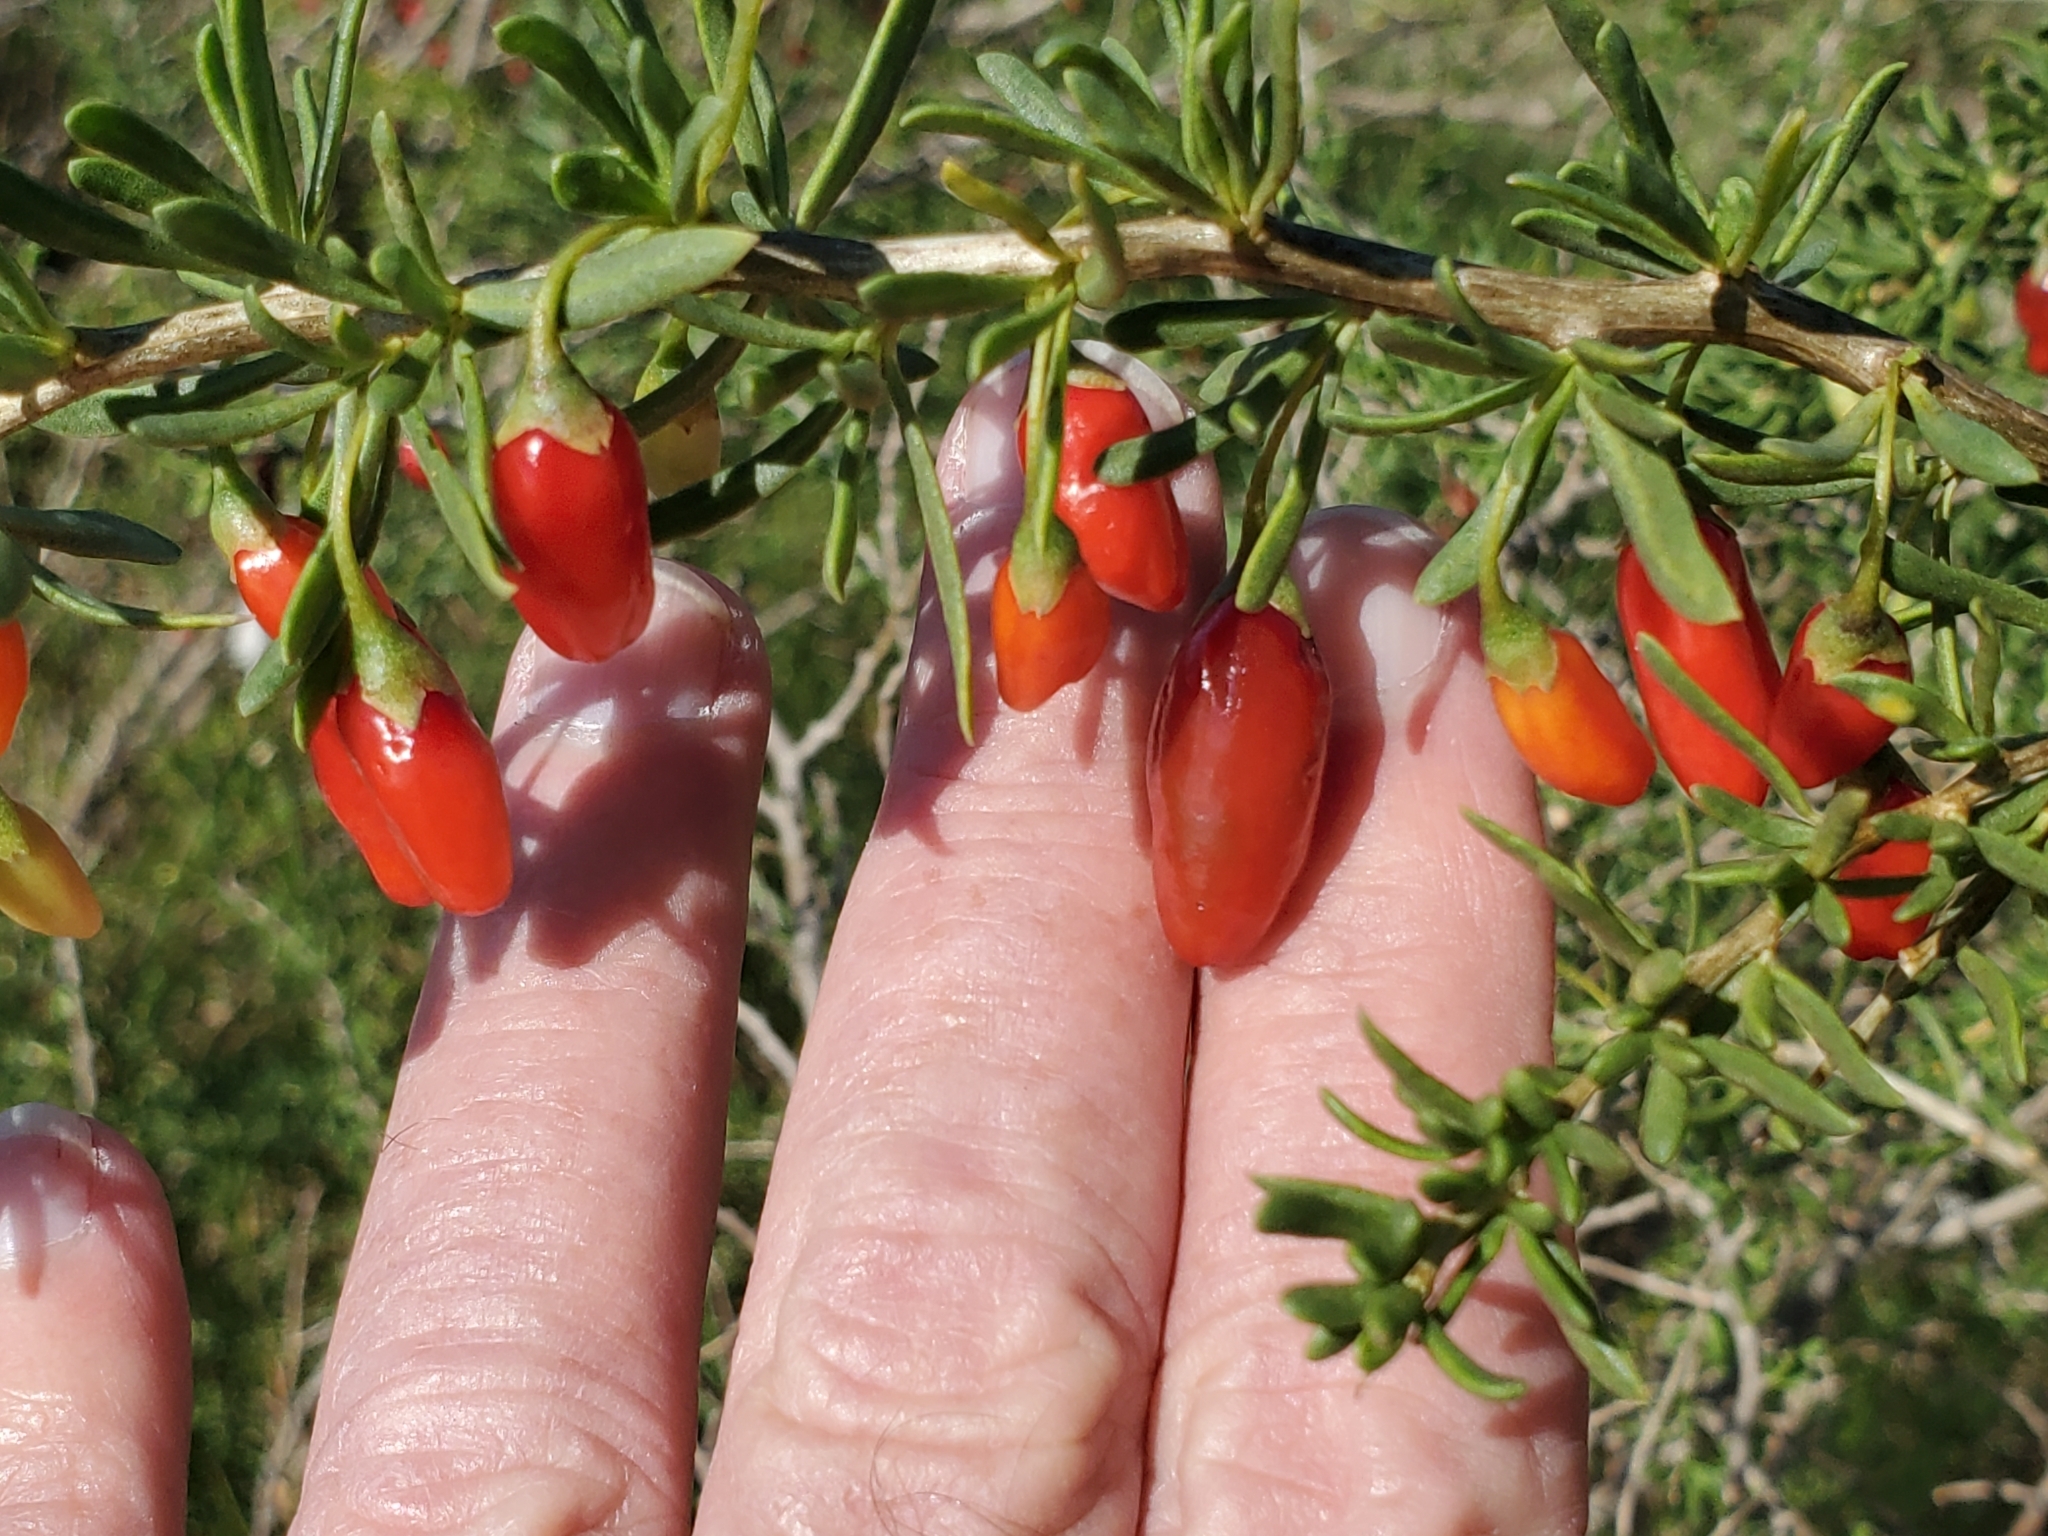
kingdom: Plantae
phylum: Tracheophyta
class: Magnoliopsida
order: Solanales
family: Solanaceae
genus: Lycium
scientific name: Lycium carolinianum
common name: Christmasberry
